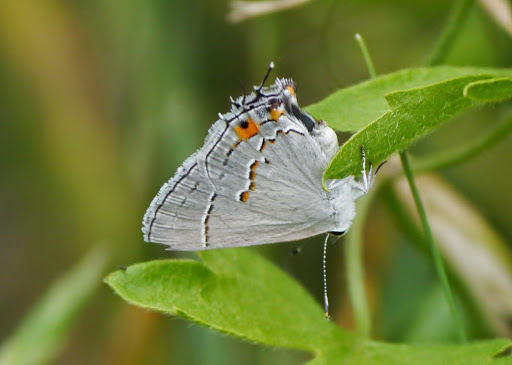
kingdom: Animalia
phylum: Arthropoda
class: Insecta
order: Lepidoptera
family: Lycaenidae
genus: Strymon
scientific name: Strymon melinus
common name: Gray hairstreak
